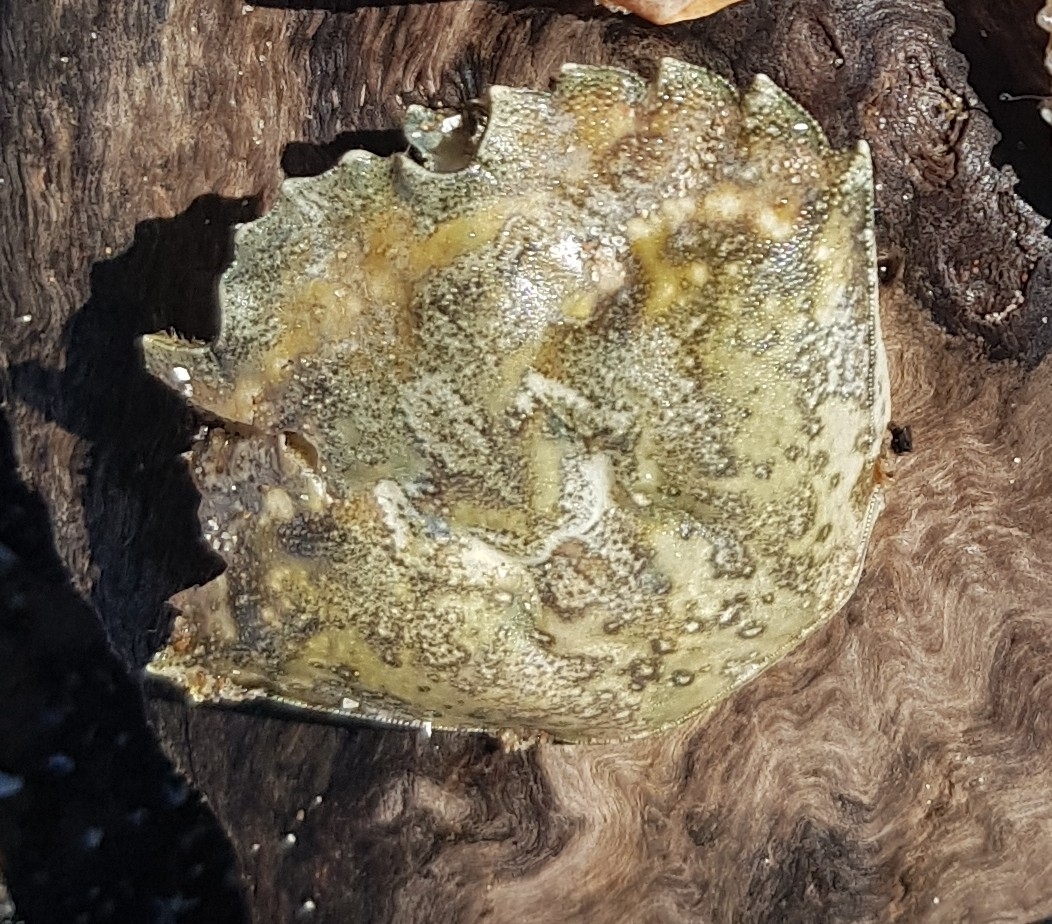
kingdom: Animalia
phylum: Arthropoda
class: Malacostraca
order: Decapoda
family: Carcinidae
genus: Carcinus
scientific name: Carcinus maenas
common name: European green crab
